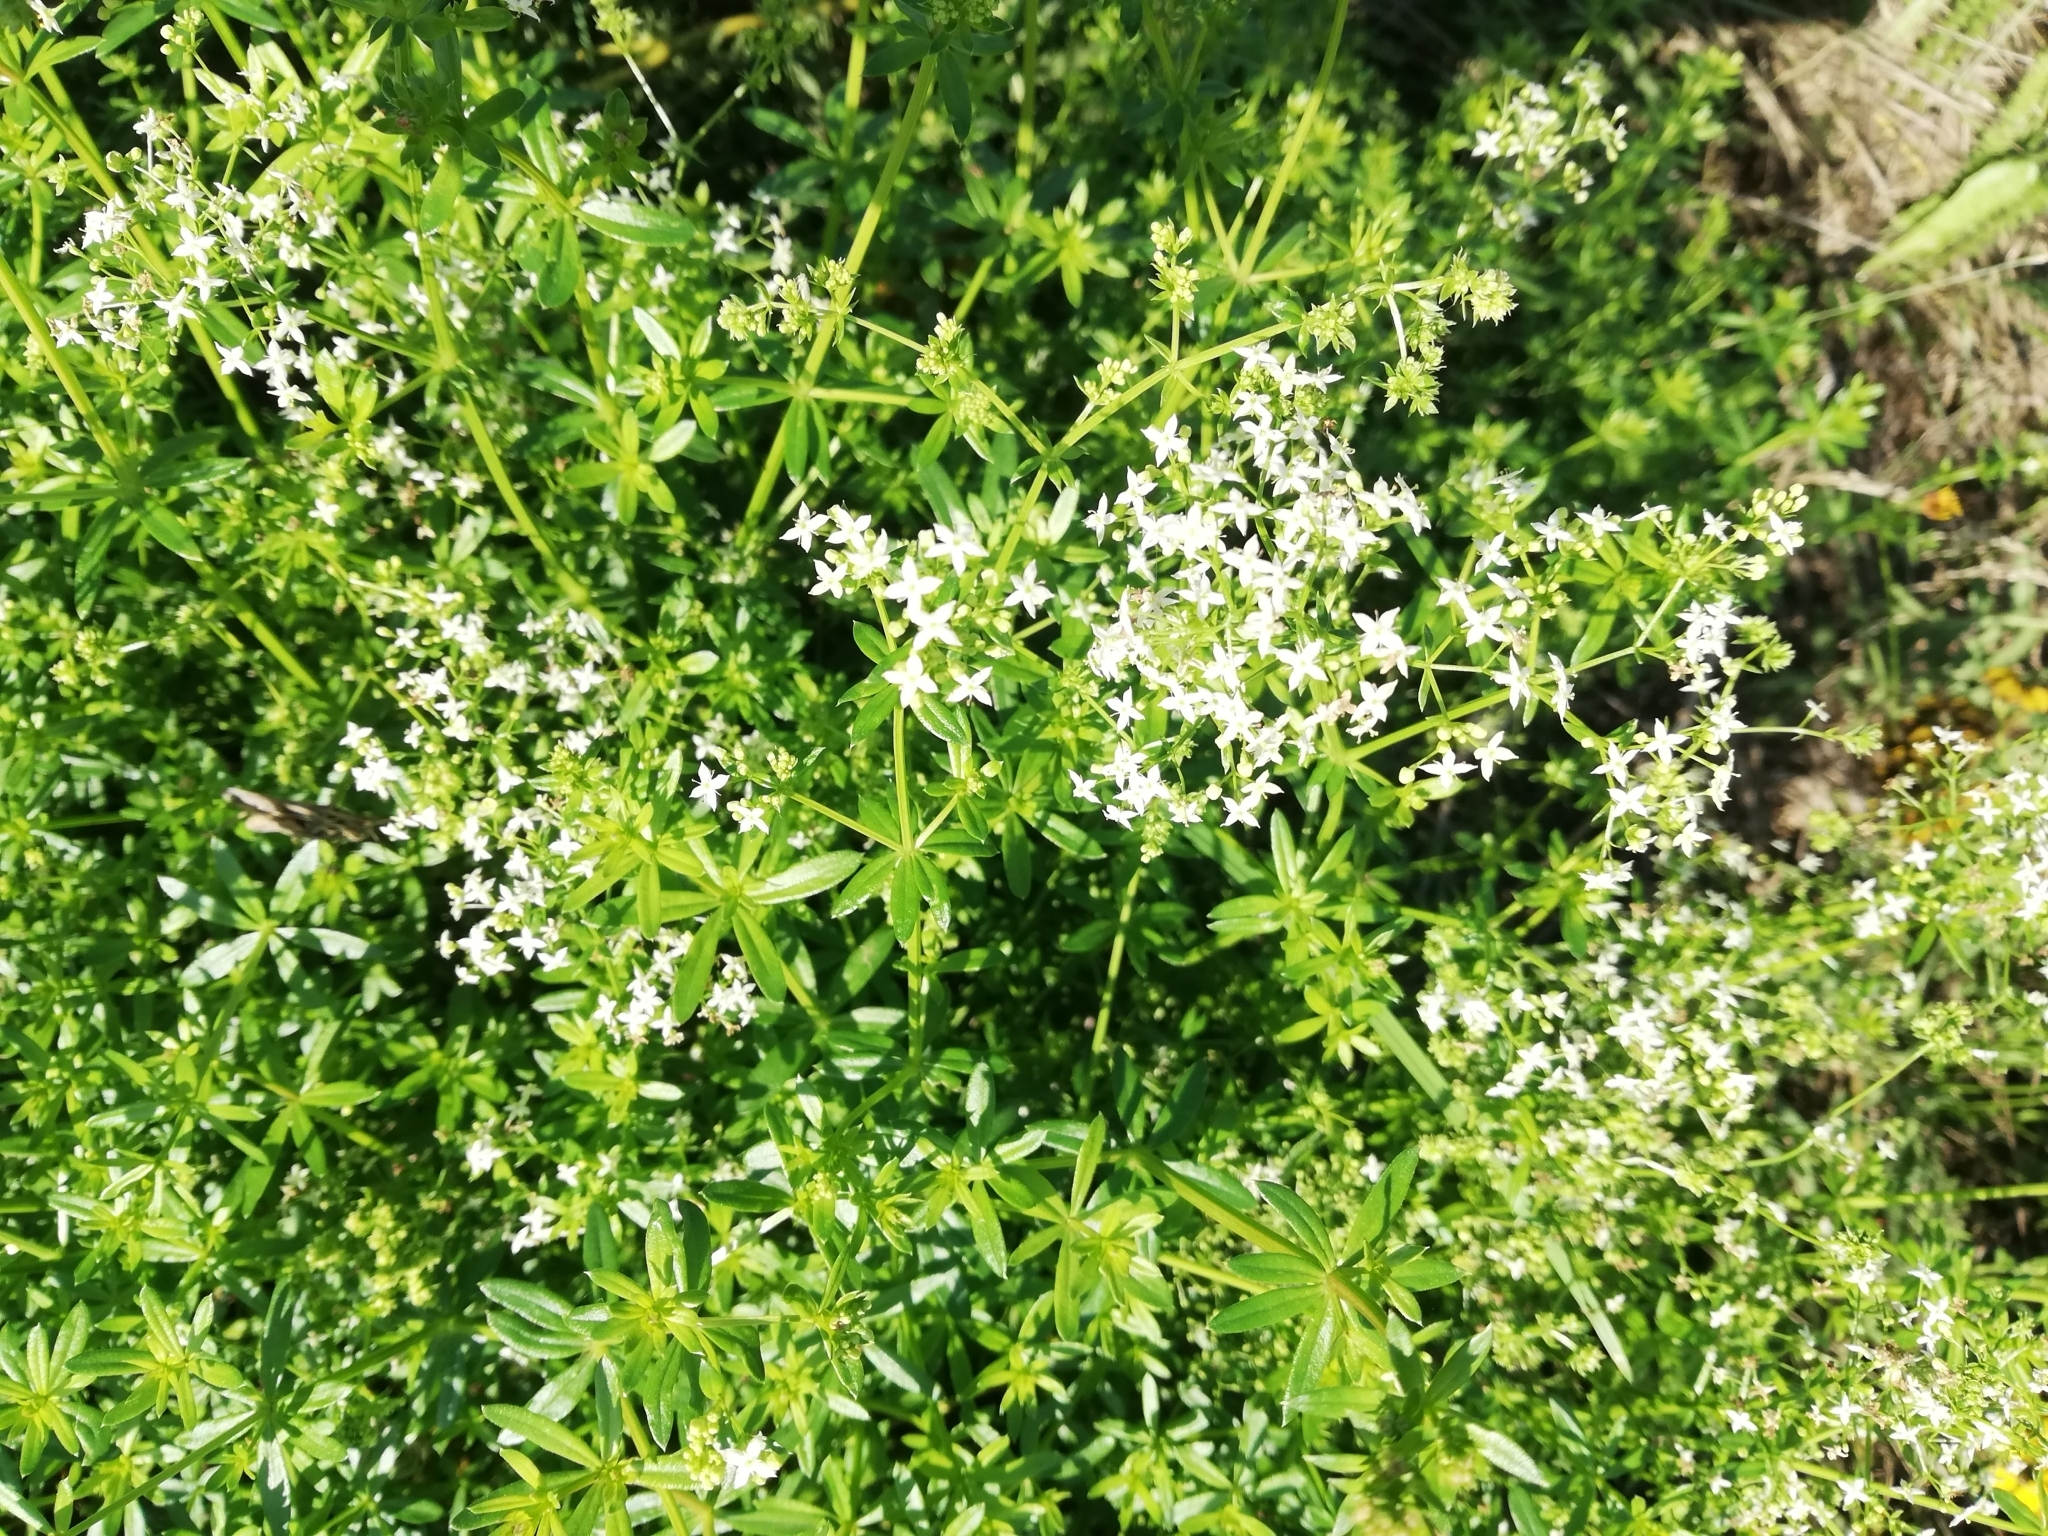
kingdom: Plantae
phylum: Tracheophyta
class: Magnoliopsida
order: Gentianales
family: Rubiaceae
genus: Galium
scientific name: Galium mollugo
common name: Hedge bedstraw
